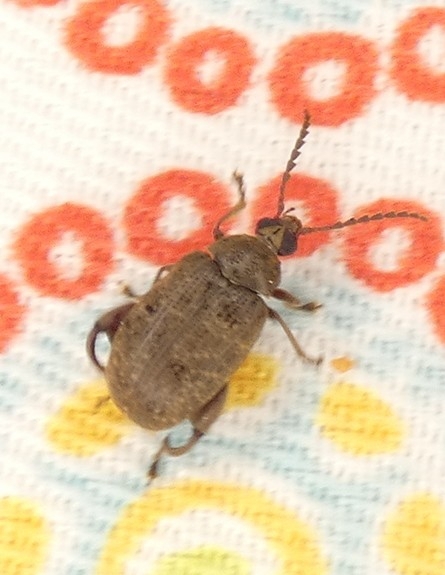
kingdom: Animalia
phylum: Arthropoda
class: Insecta
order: Coleoptera
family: Chrysomelidae
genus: Caryobruchus
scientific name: Caryobruchus gleditsiae
